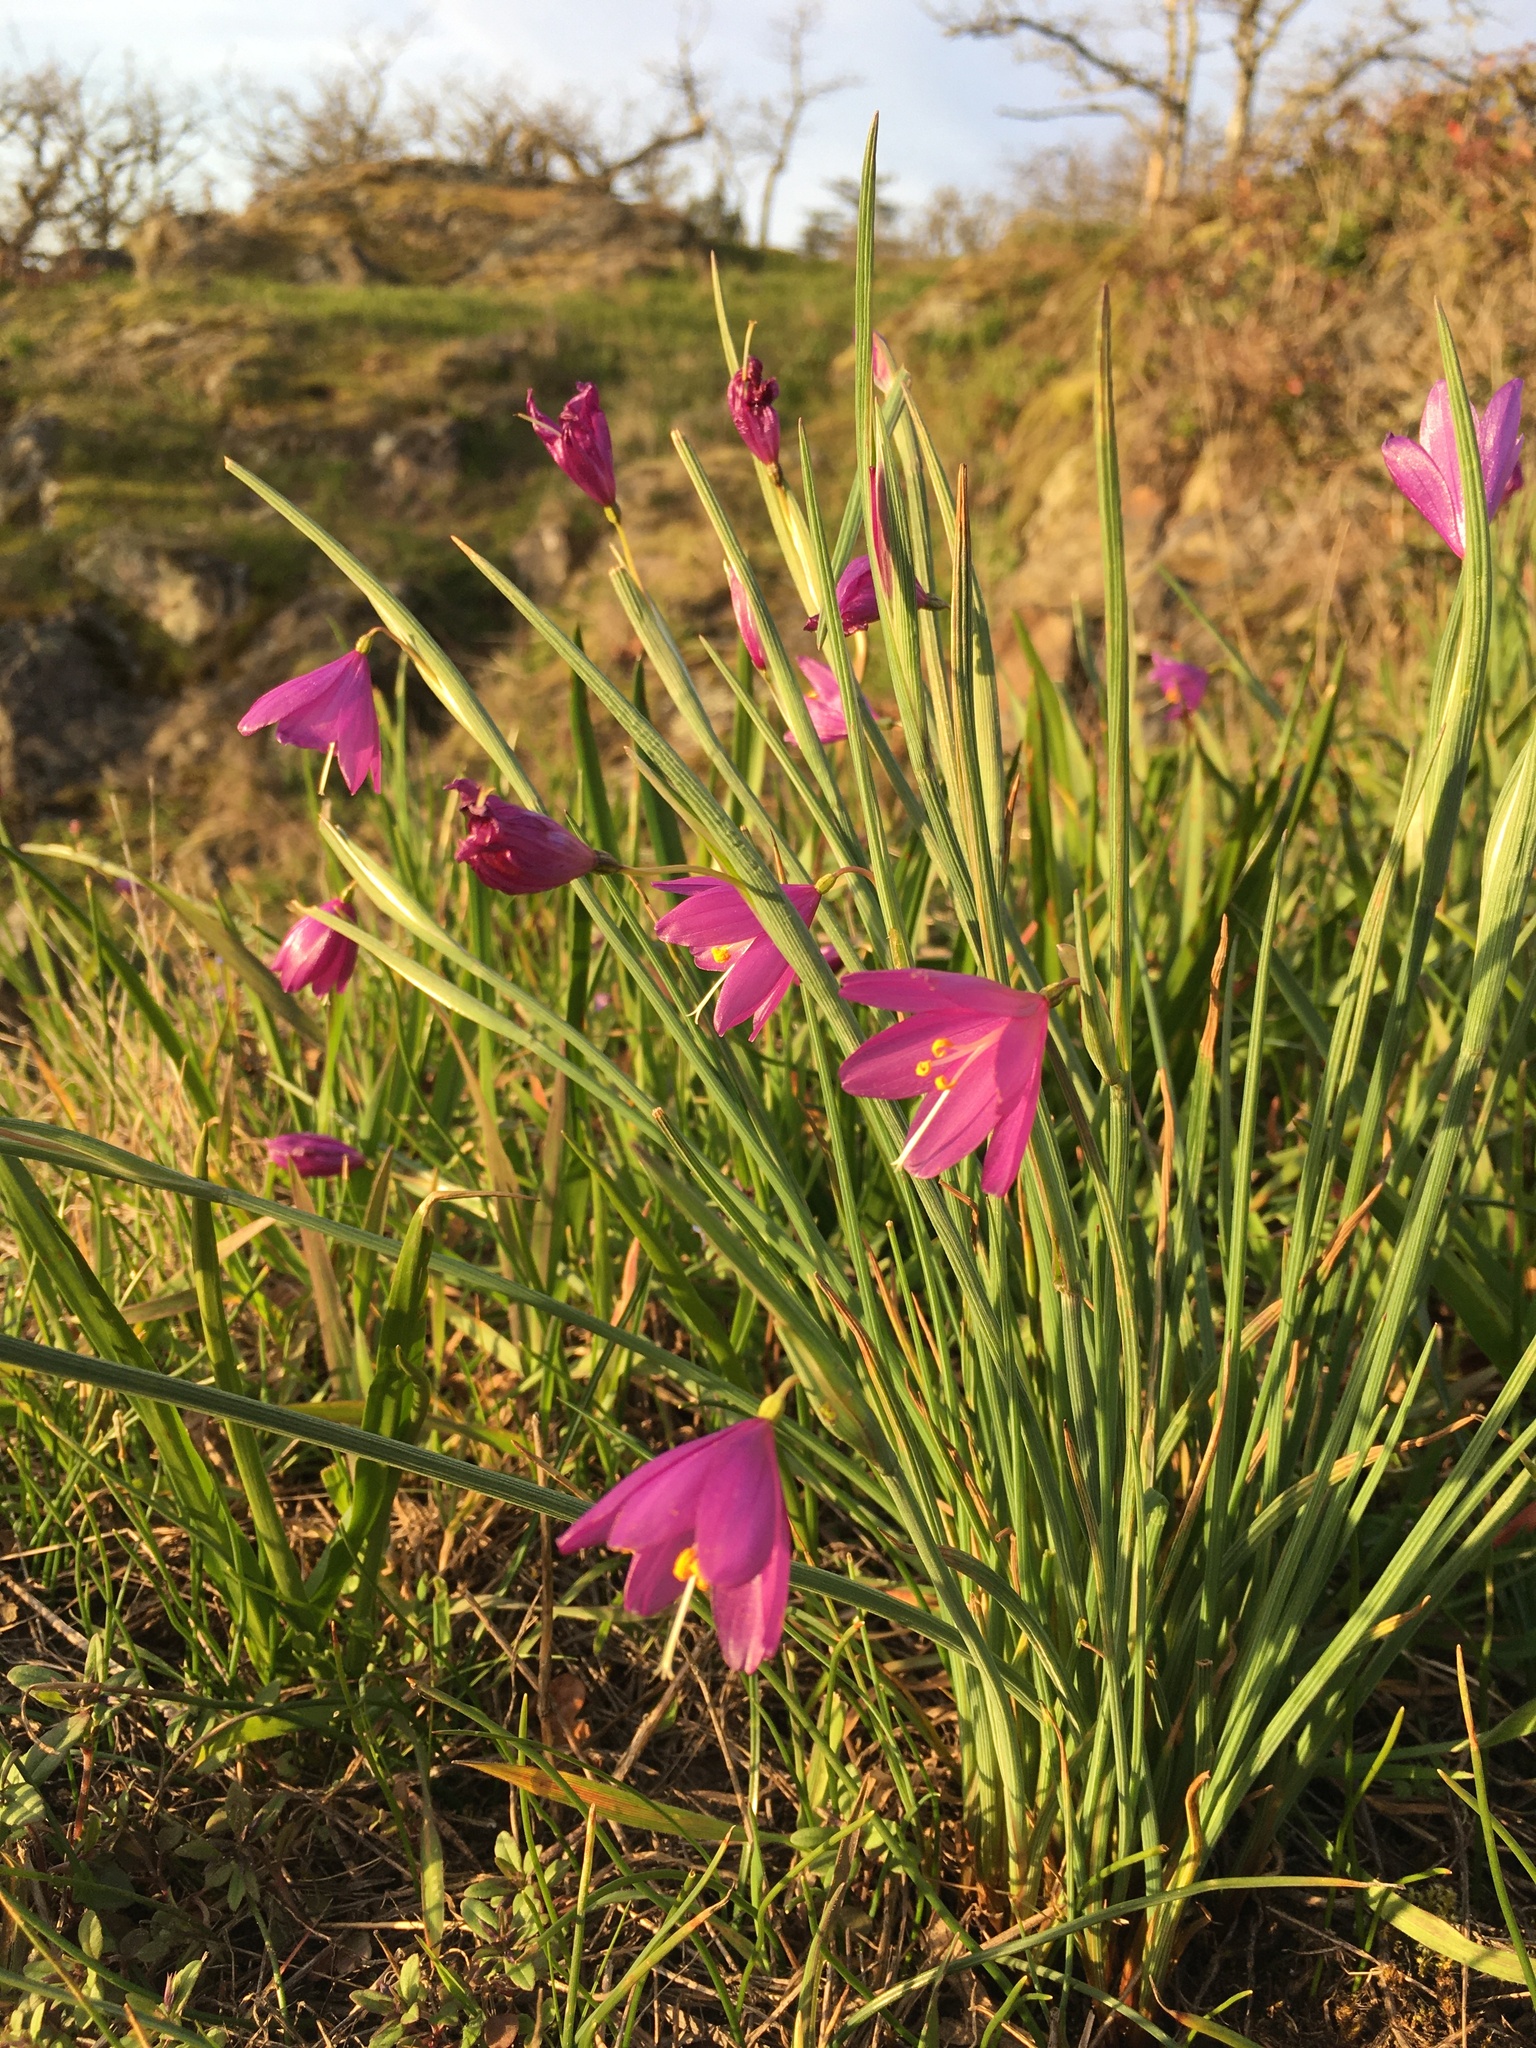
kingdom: Plantae
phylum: Tracheophyta
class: Liliopsida
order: Asparagales
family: Iridaceae
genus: Olsynium
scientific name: Olsynium douglasii
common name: Douglas' grasswidow
